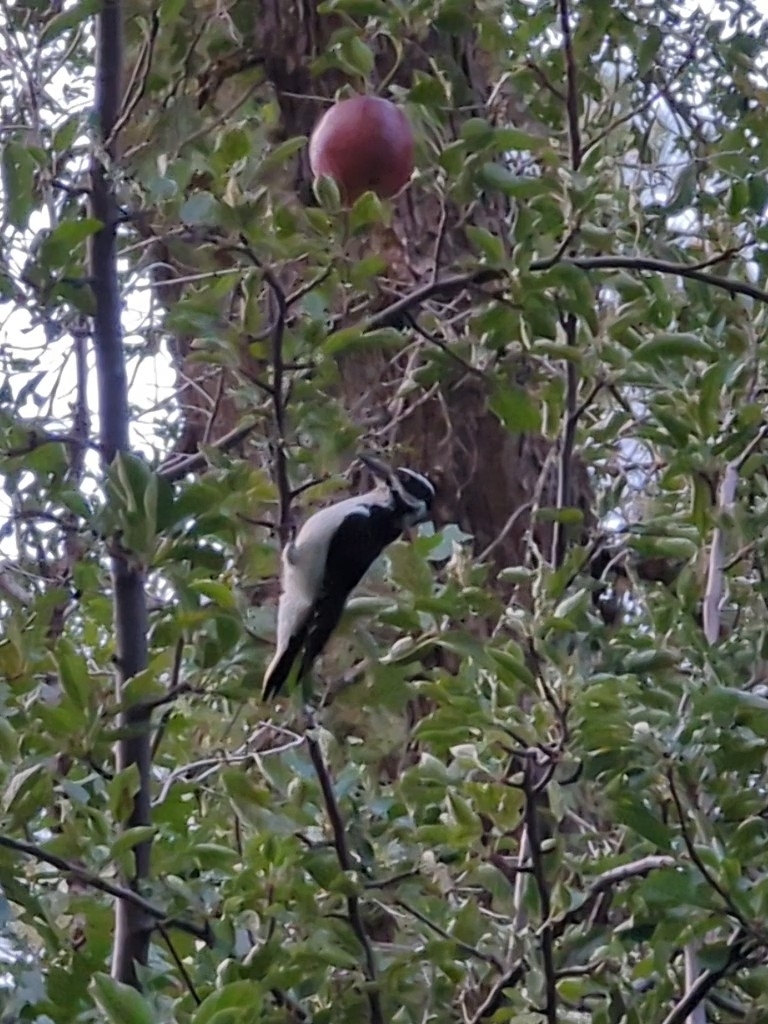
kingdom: Animalia
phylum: Chordata
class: Aves
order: Piciformes
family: Picidae
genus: Leuconotopicus
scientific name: Leuconotopicus villosus
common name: Hairy woodpecker
